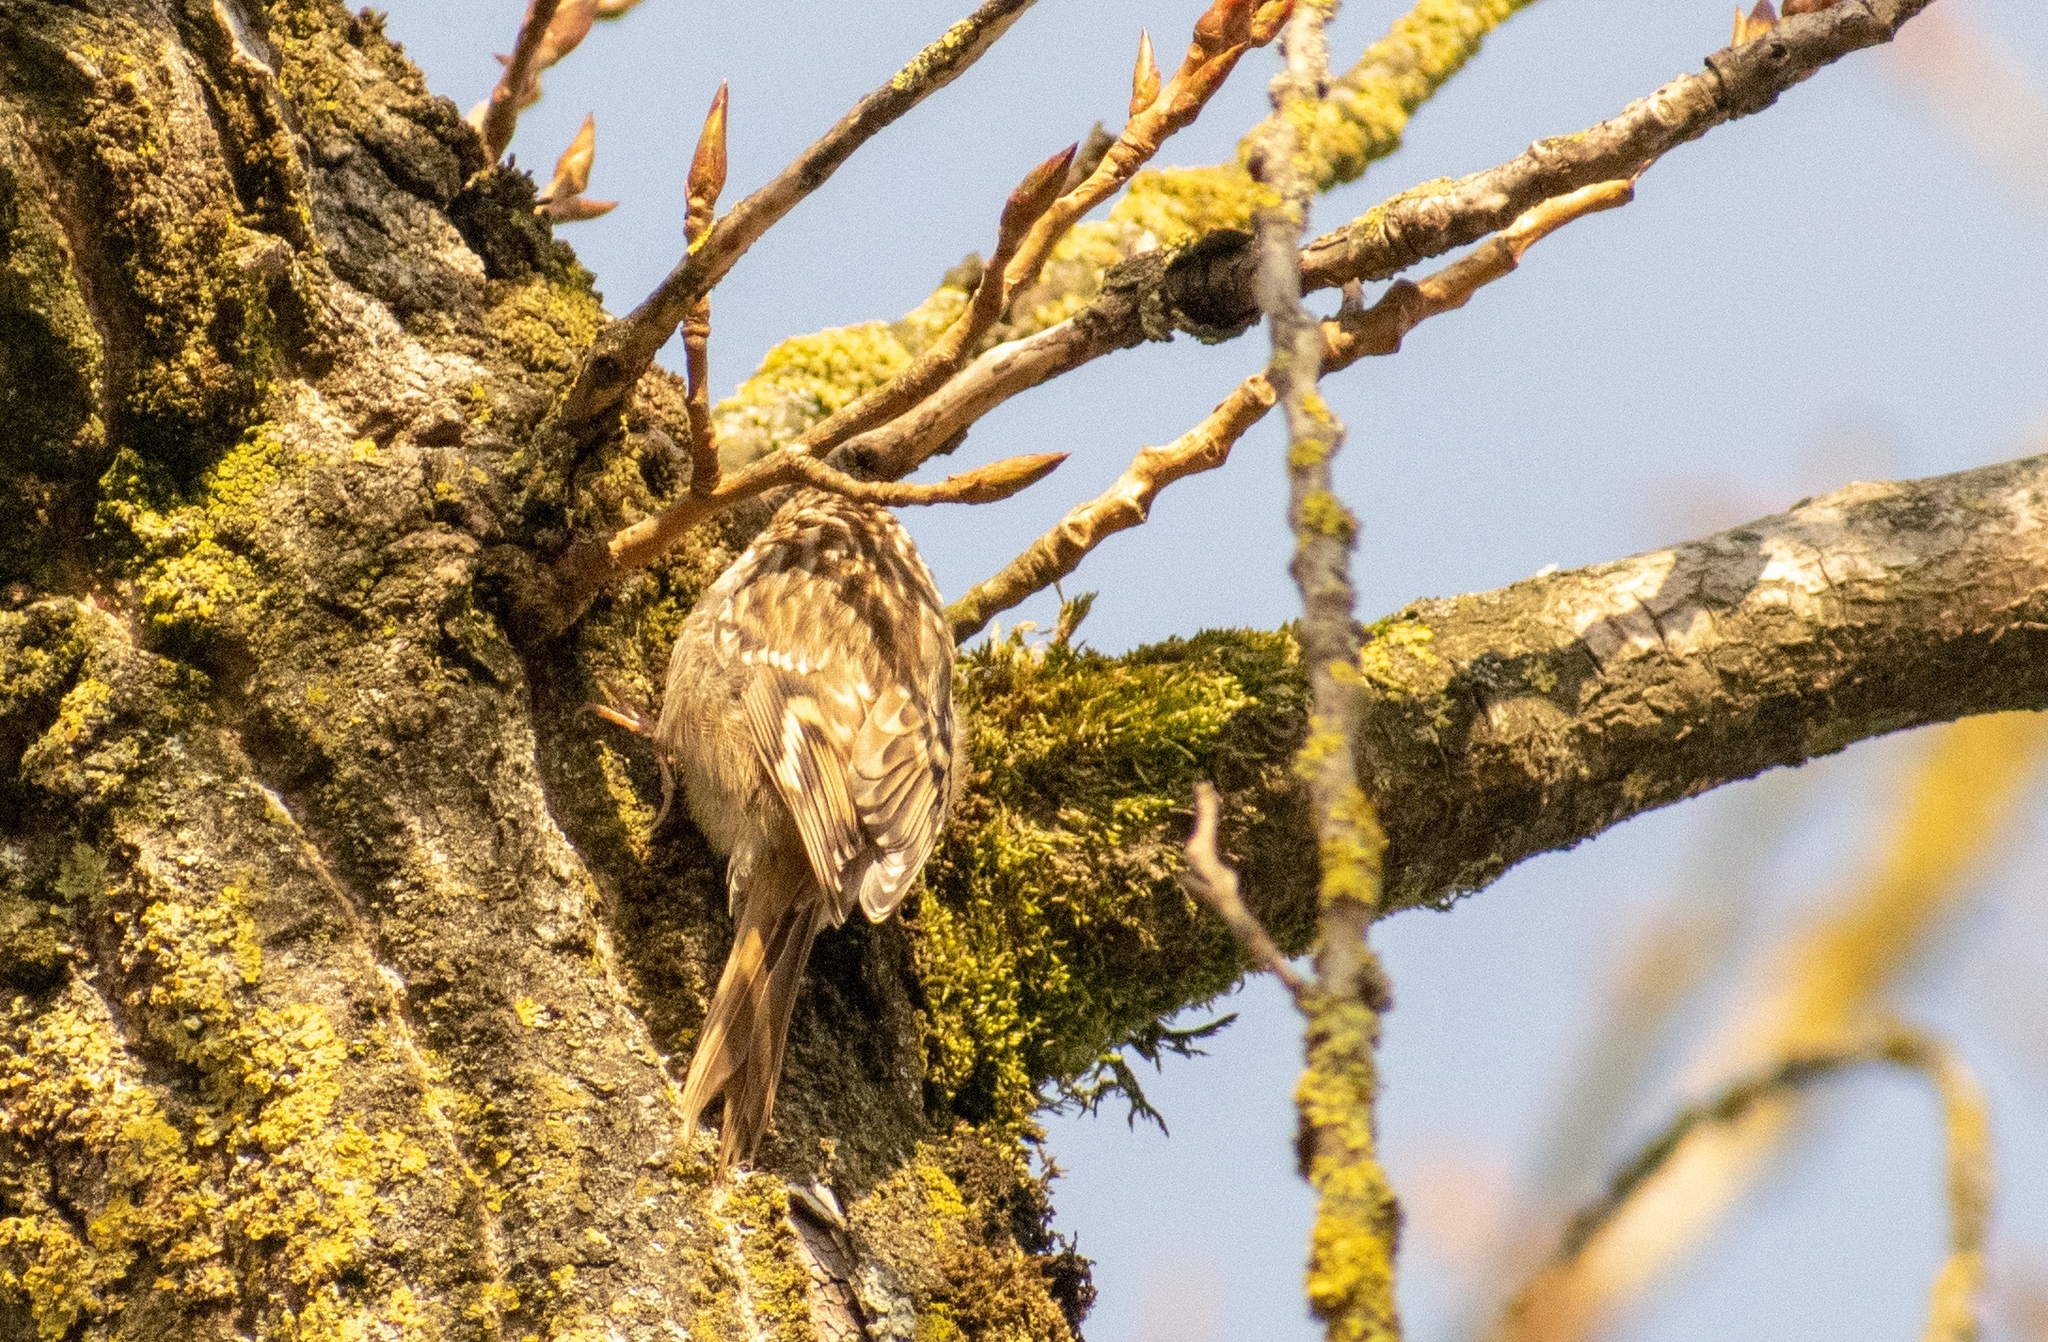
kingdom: Animalia
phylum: Chordata
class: Aves
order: Passeriformes
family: Certhiidae
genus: Certhia
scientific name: Certhia brachydactyla
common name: Short-toed treecreeper
